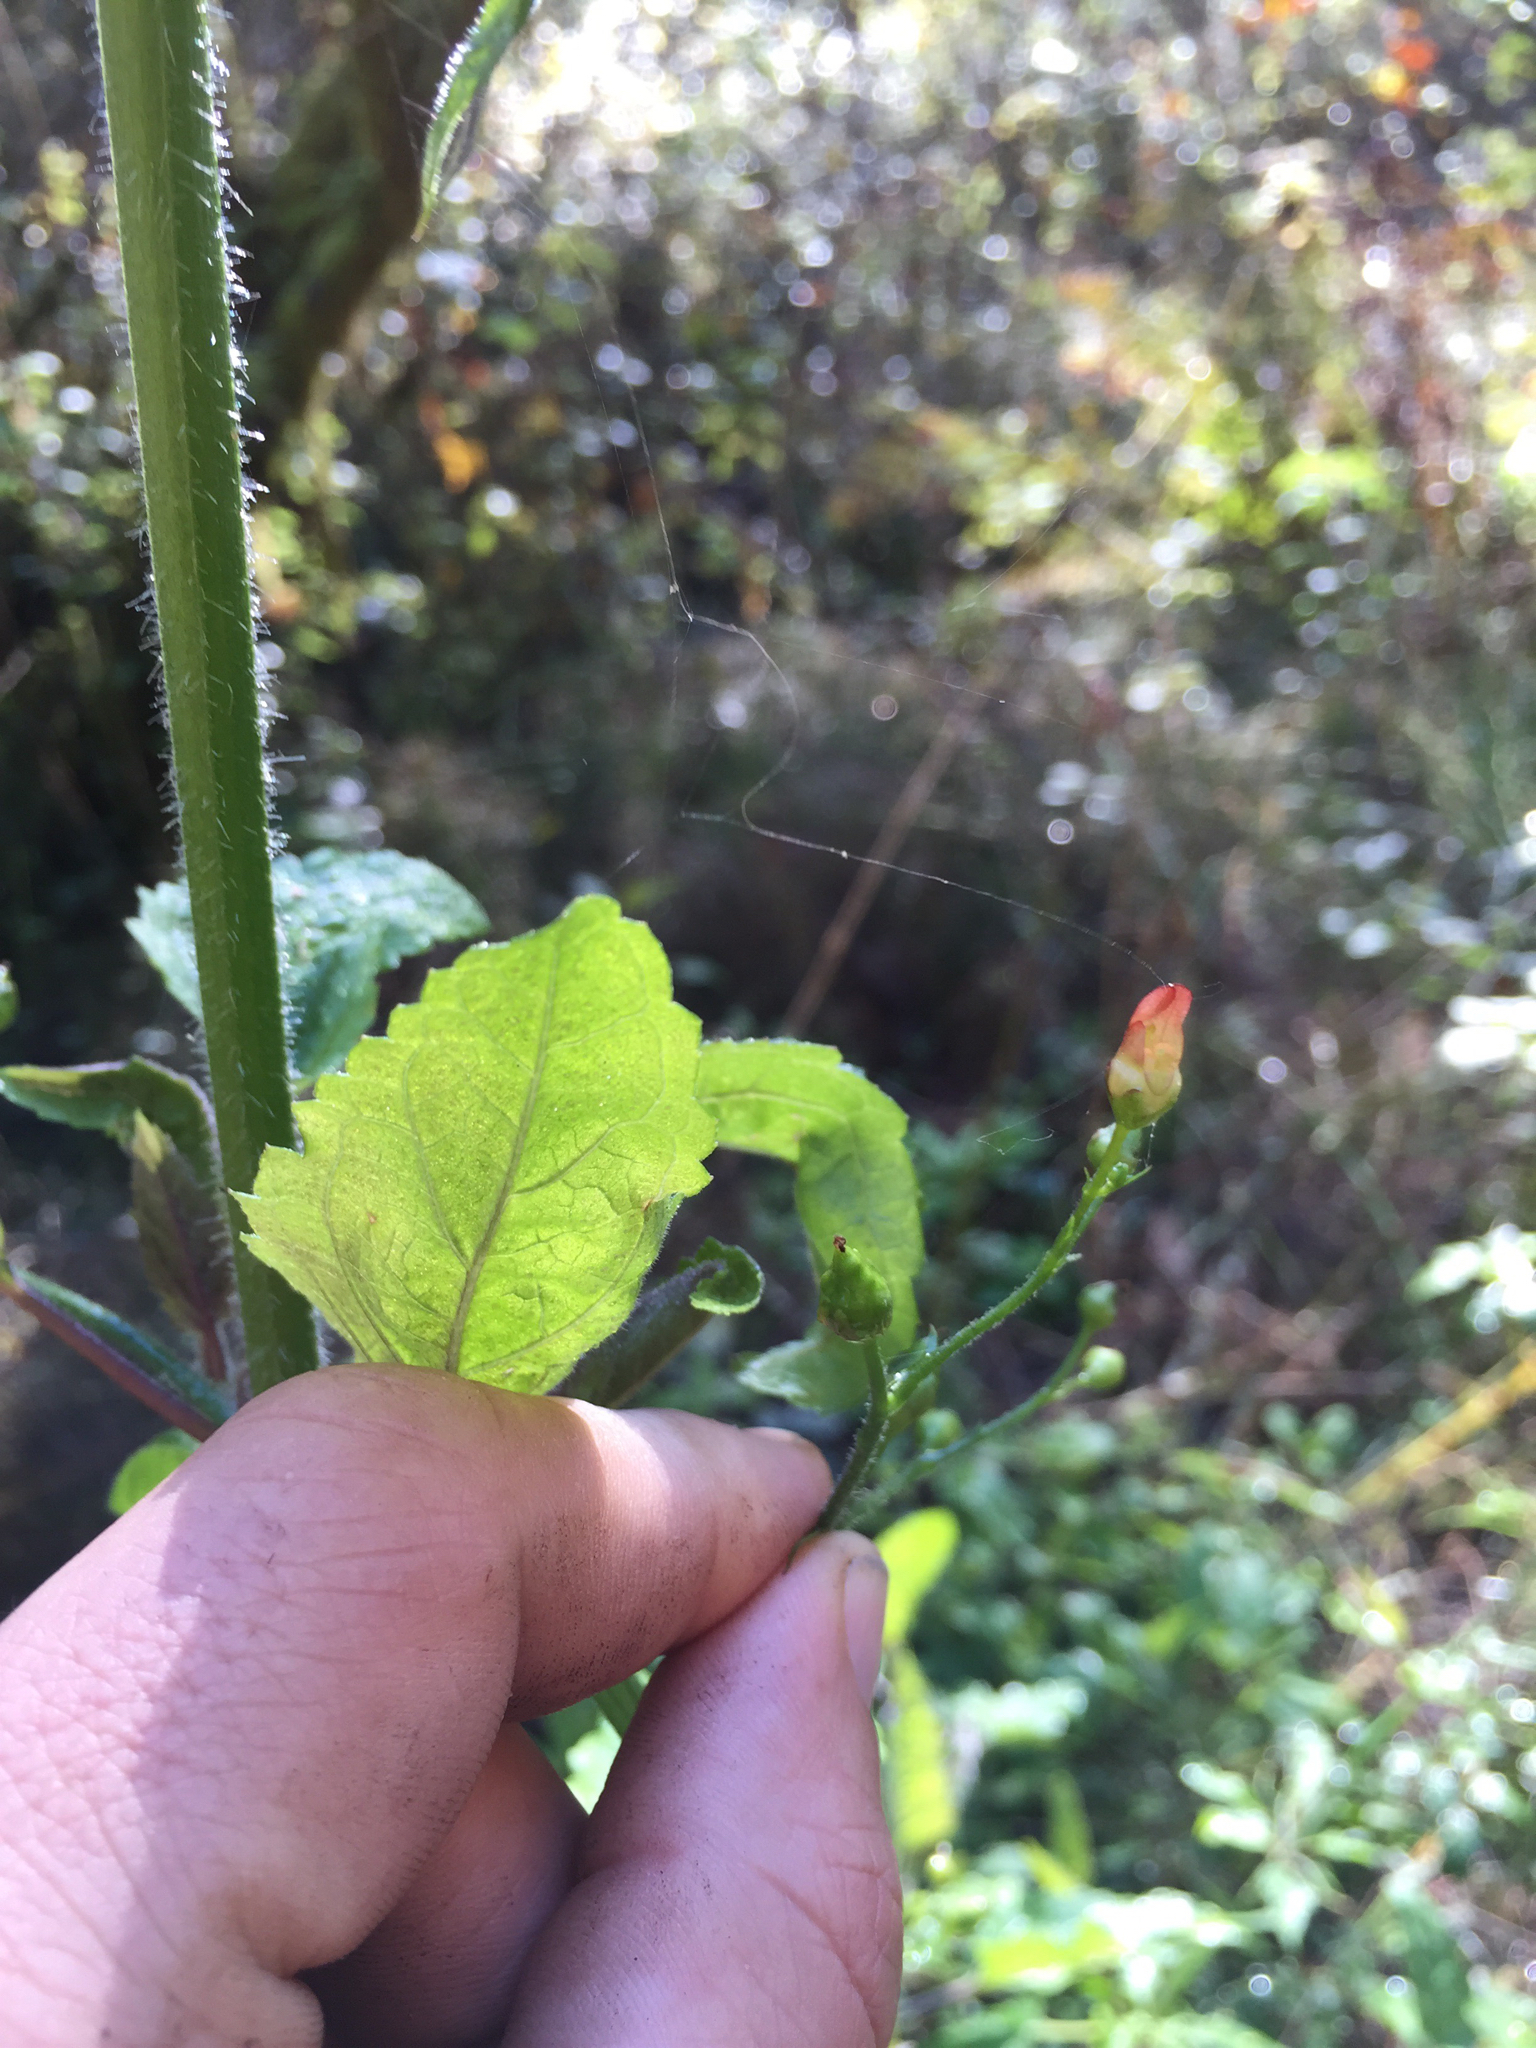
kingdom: Plantae
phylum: Tracheophyta
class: Magnoliopsida
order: Lamiales
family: Scrophulariaceae
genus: Scrophularia
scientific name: Scrophularia californica
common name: California figwort
